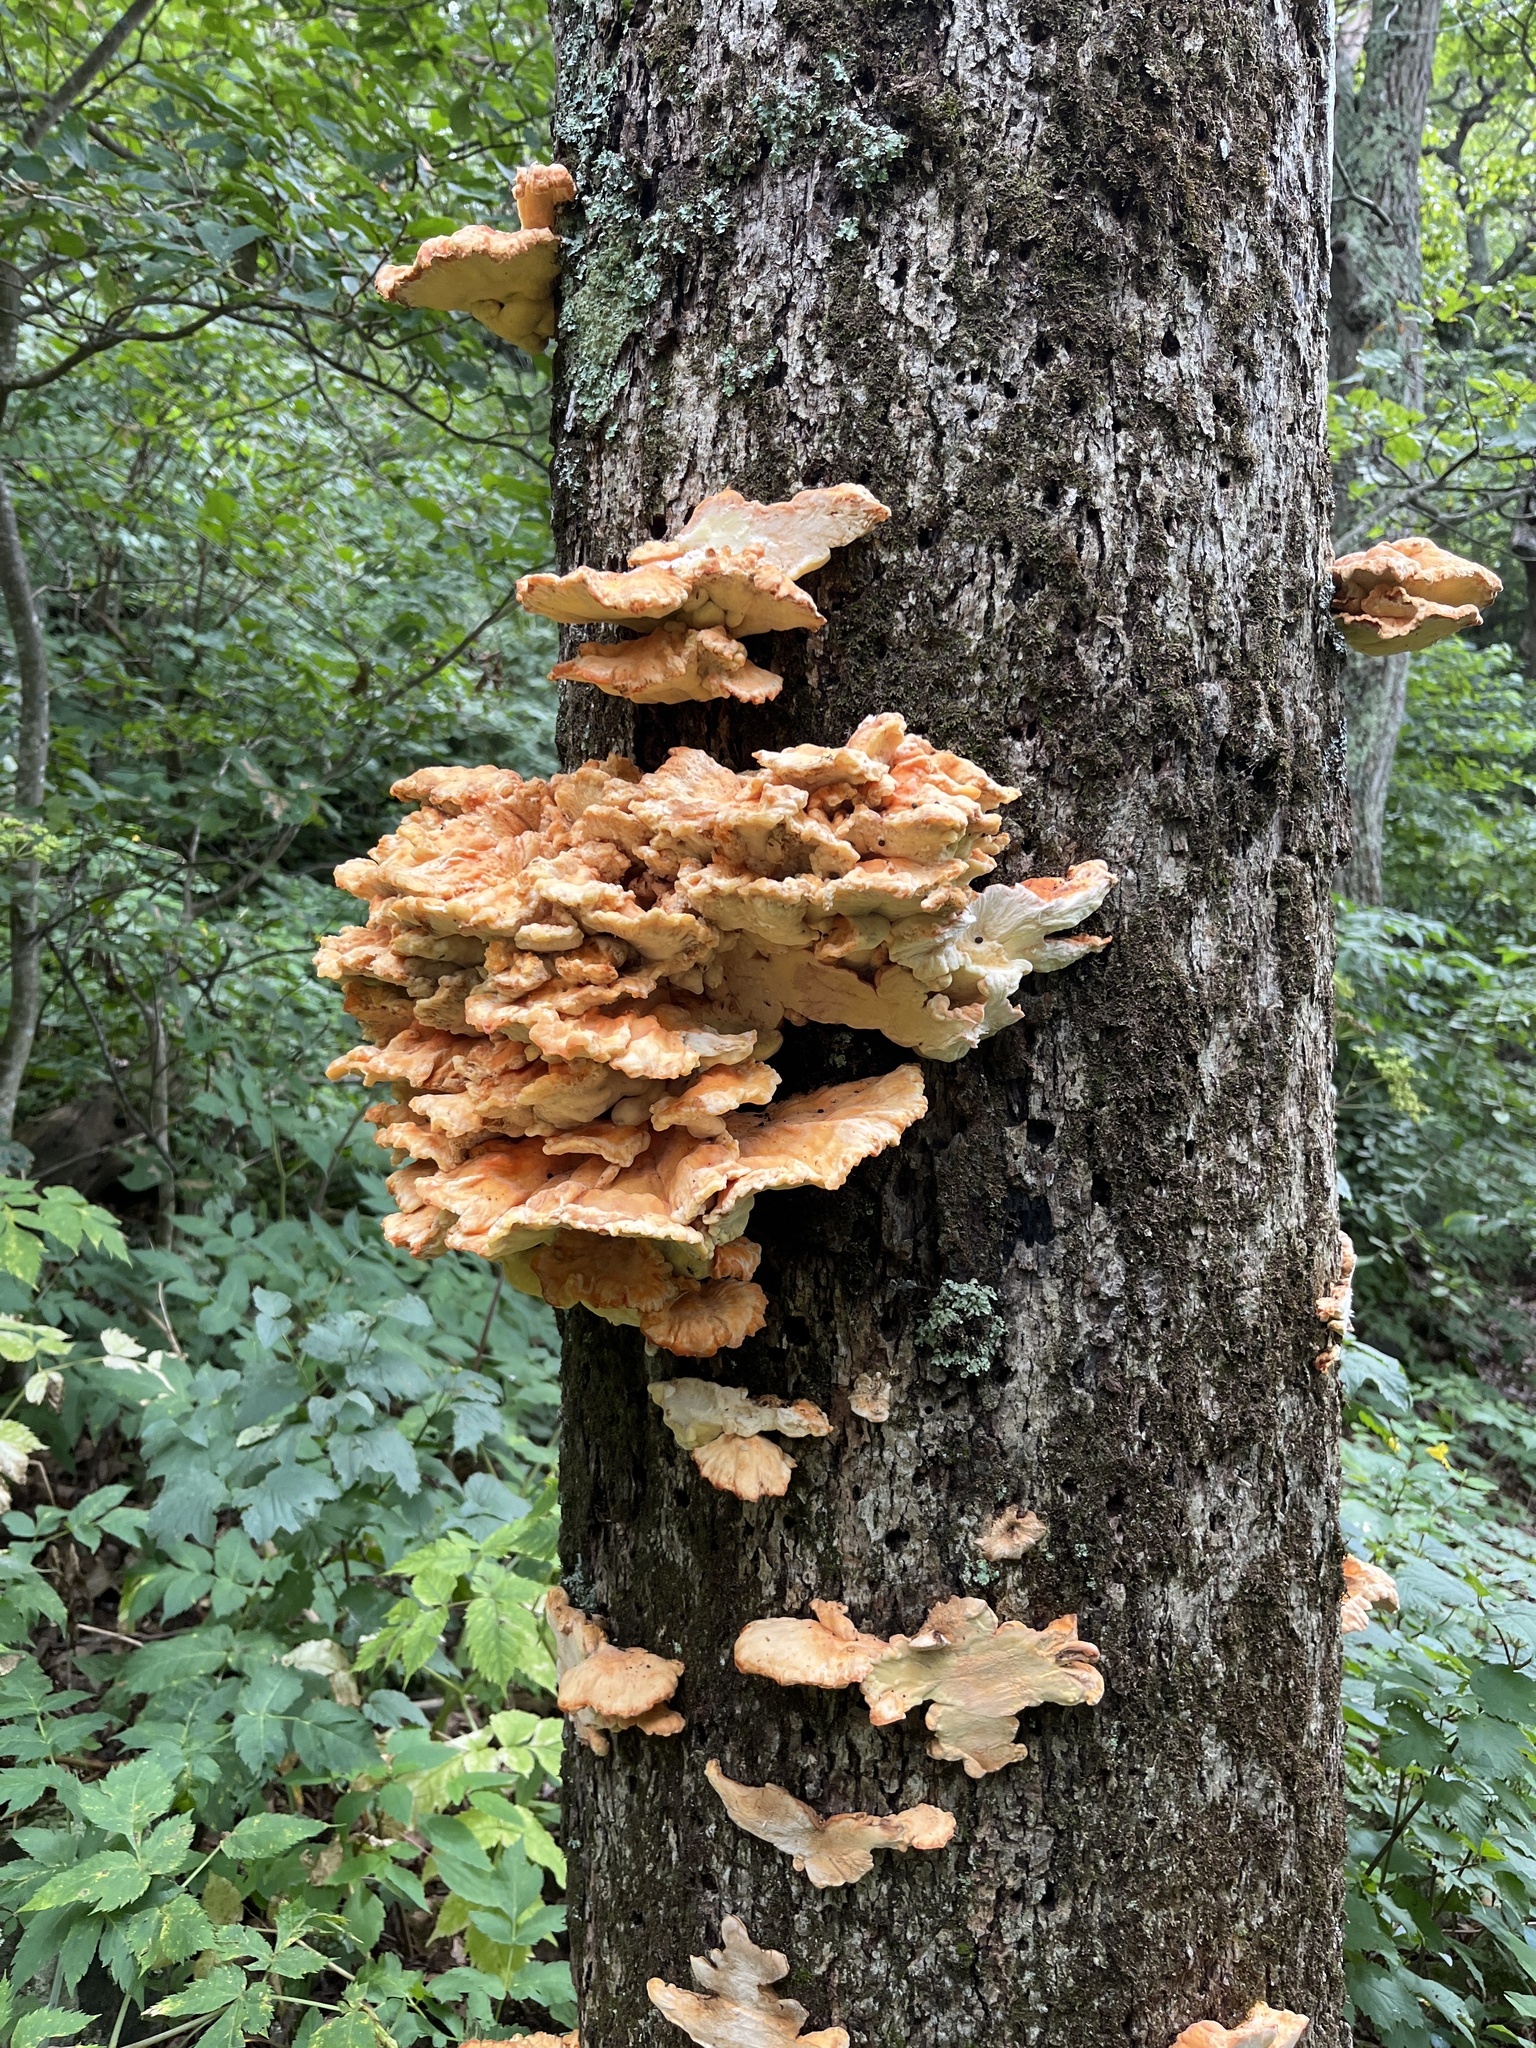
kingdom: Fungi
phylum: Basidiomycota
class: Agaricomycetes
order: Polyporales
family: Laetiporaceae
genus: Laetiporus
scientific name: Laetiporus sulphureus
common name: Chicken of the woods
